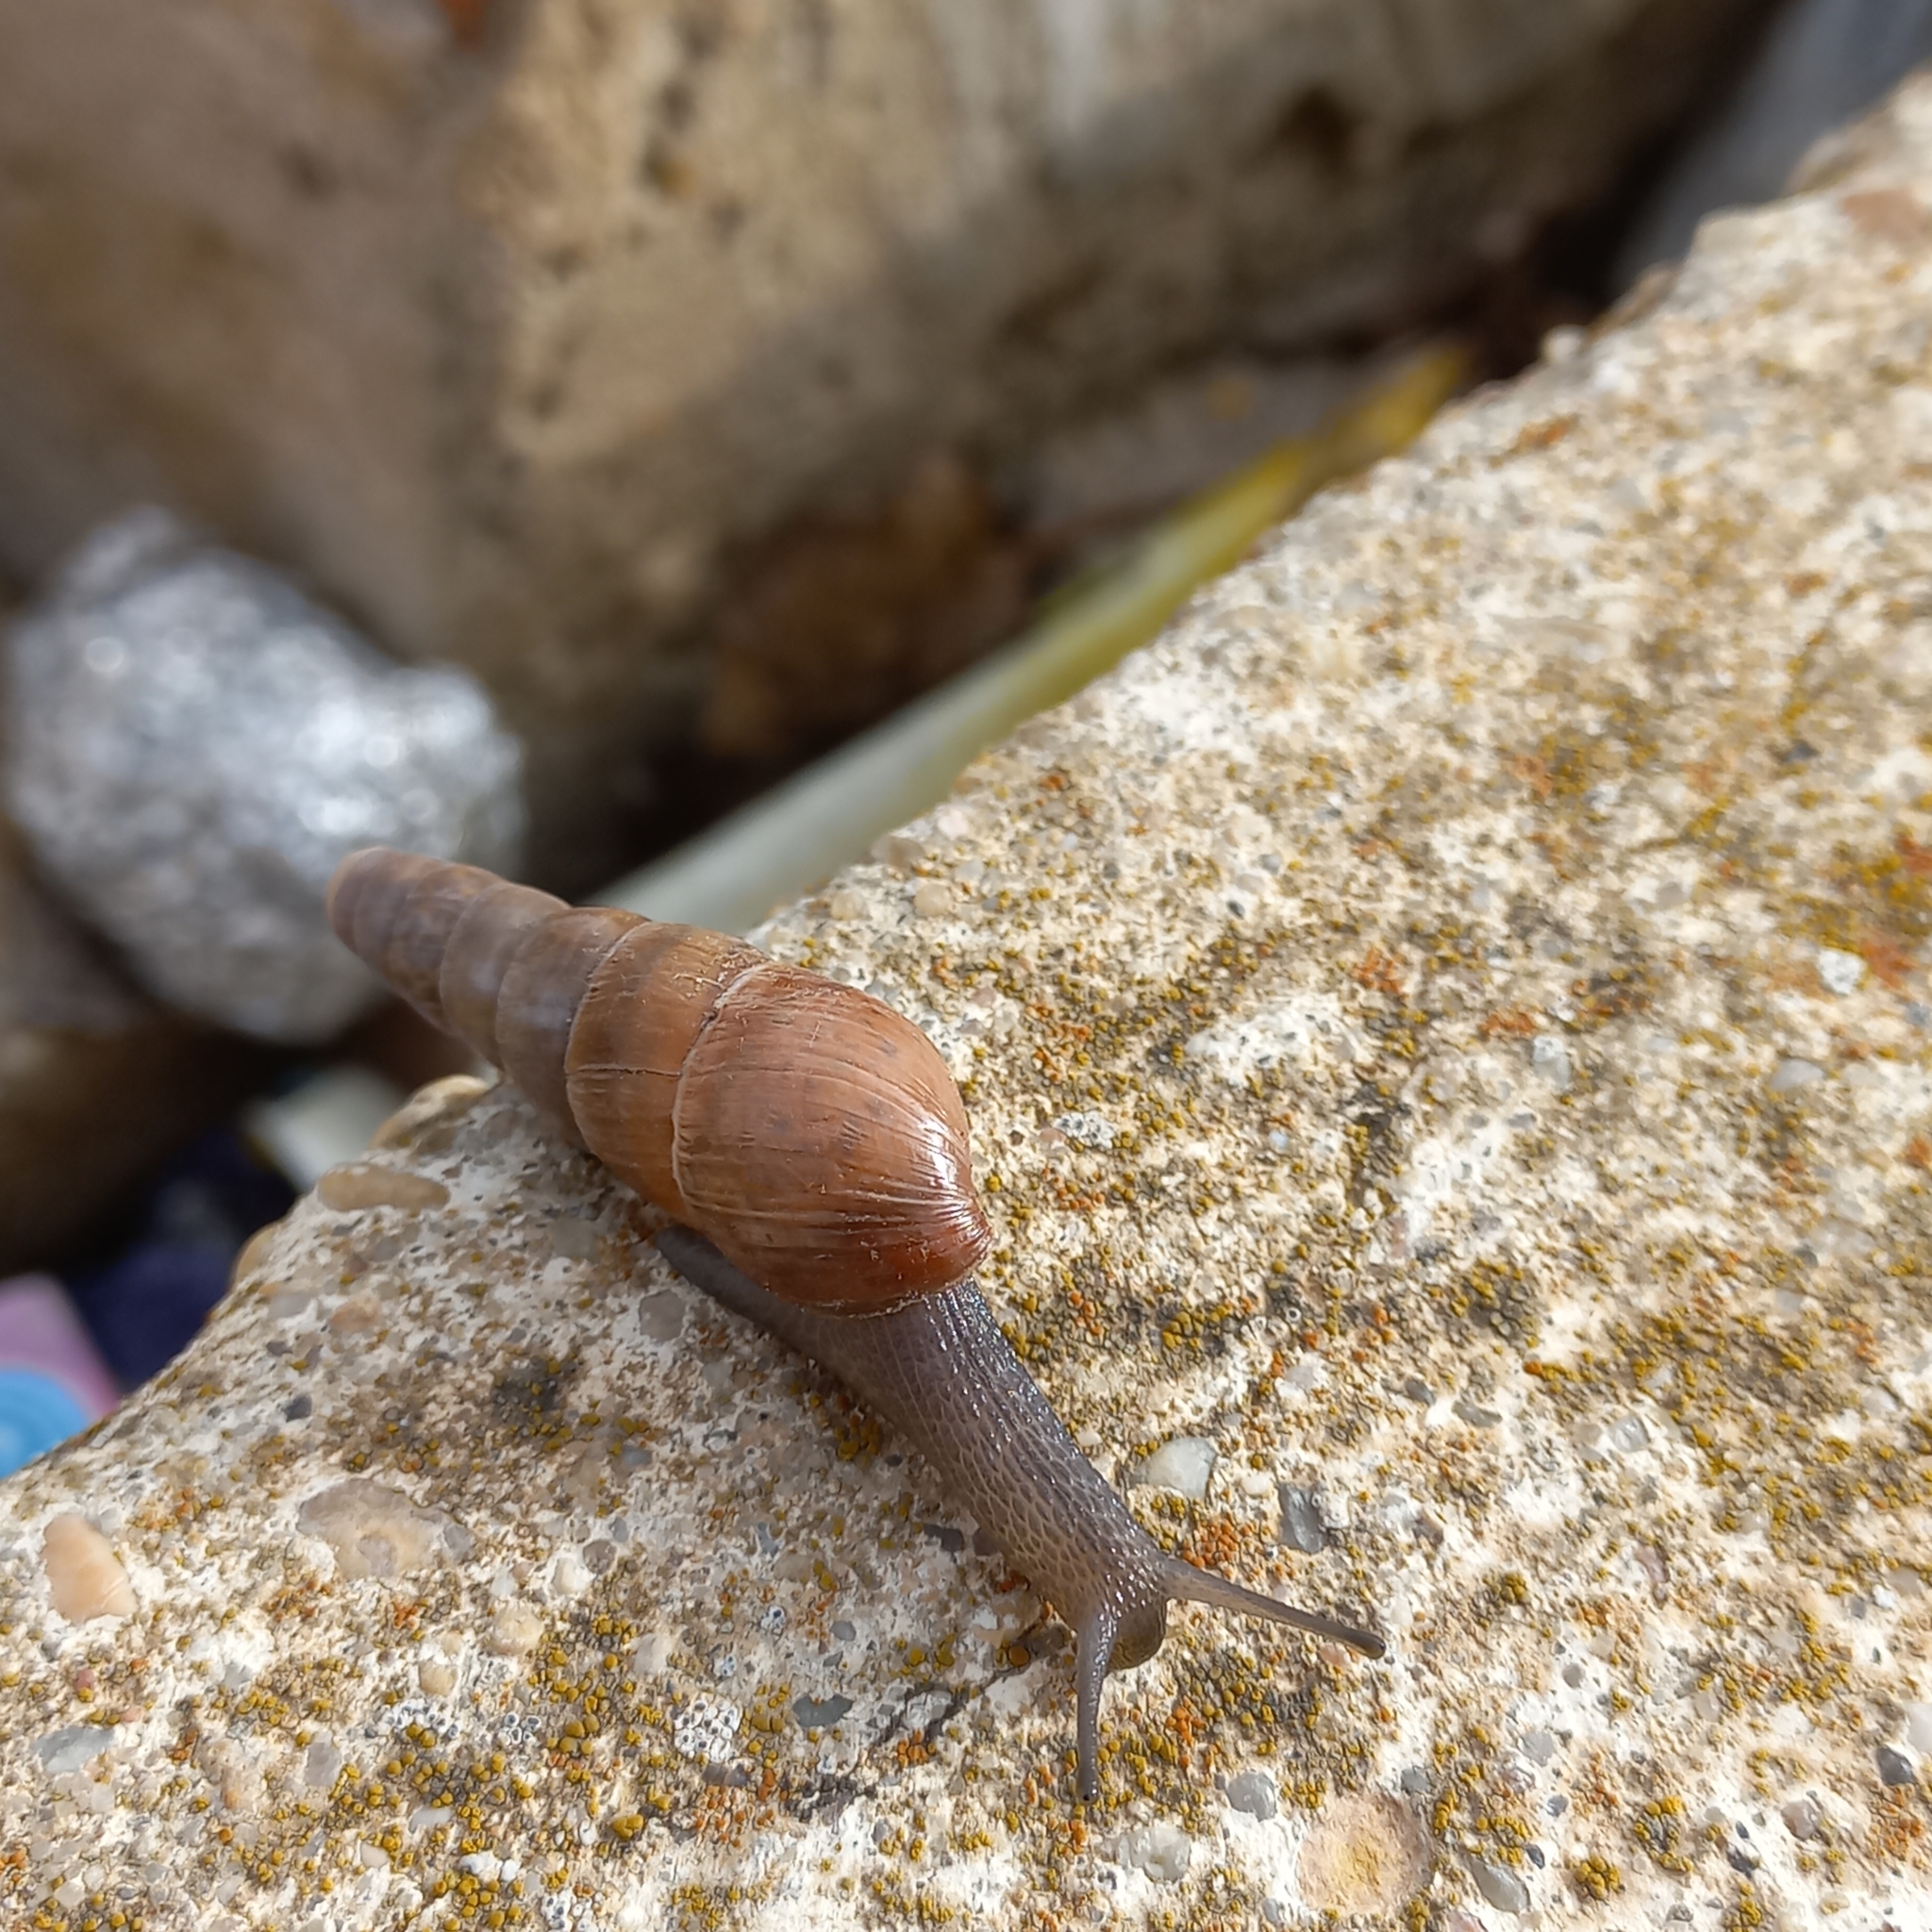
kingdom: Animalia
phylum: Mollusca
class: Gastropoda
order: Stylommatophora
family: Achatinidae
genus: Rumina
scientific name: Rumina decollata
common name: Decollate snail
